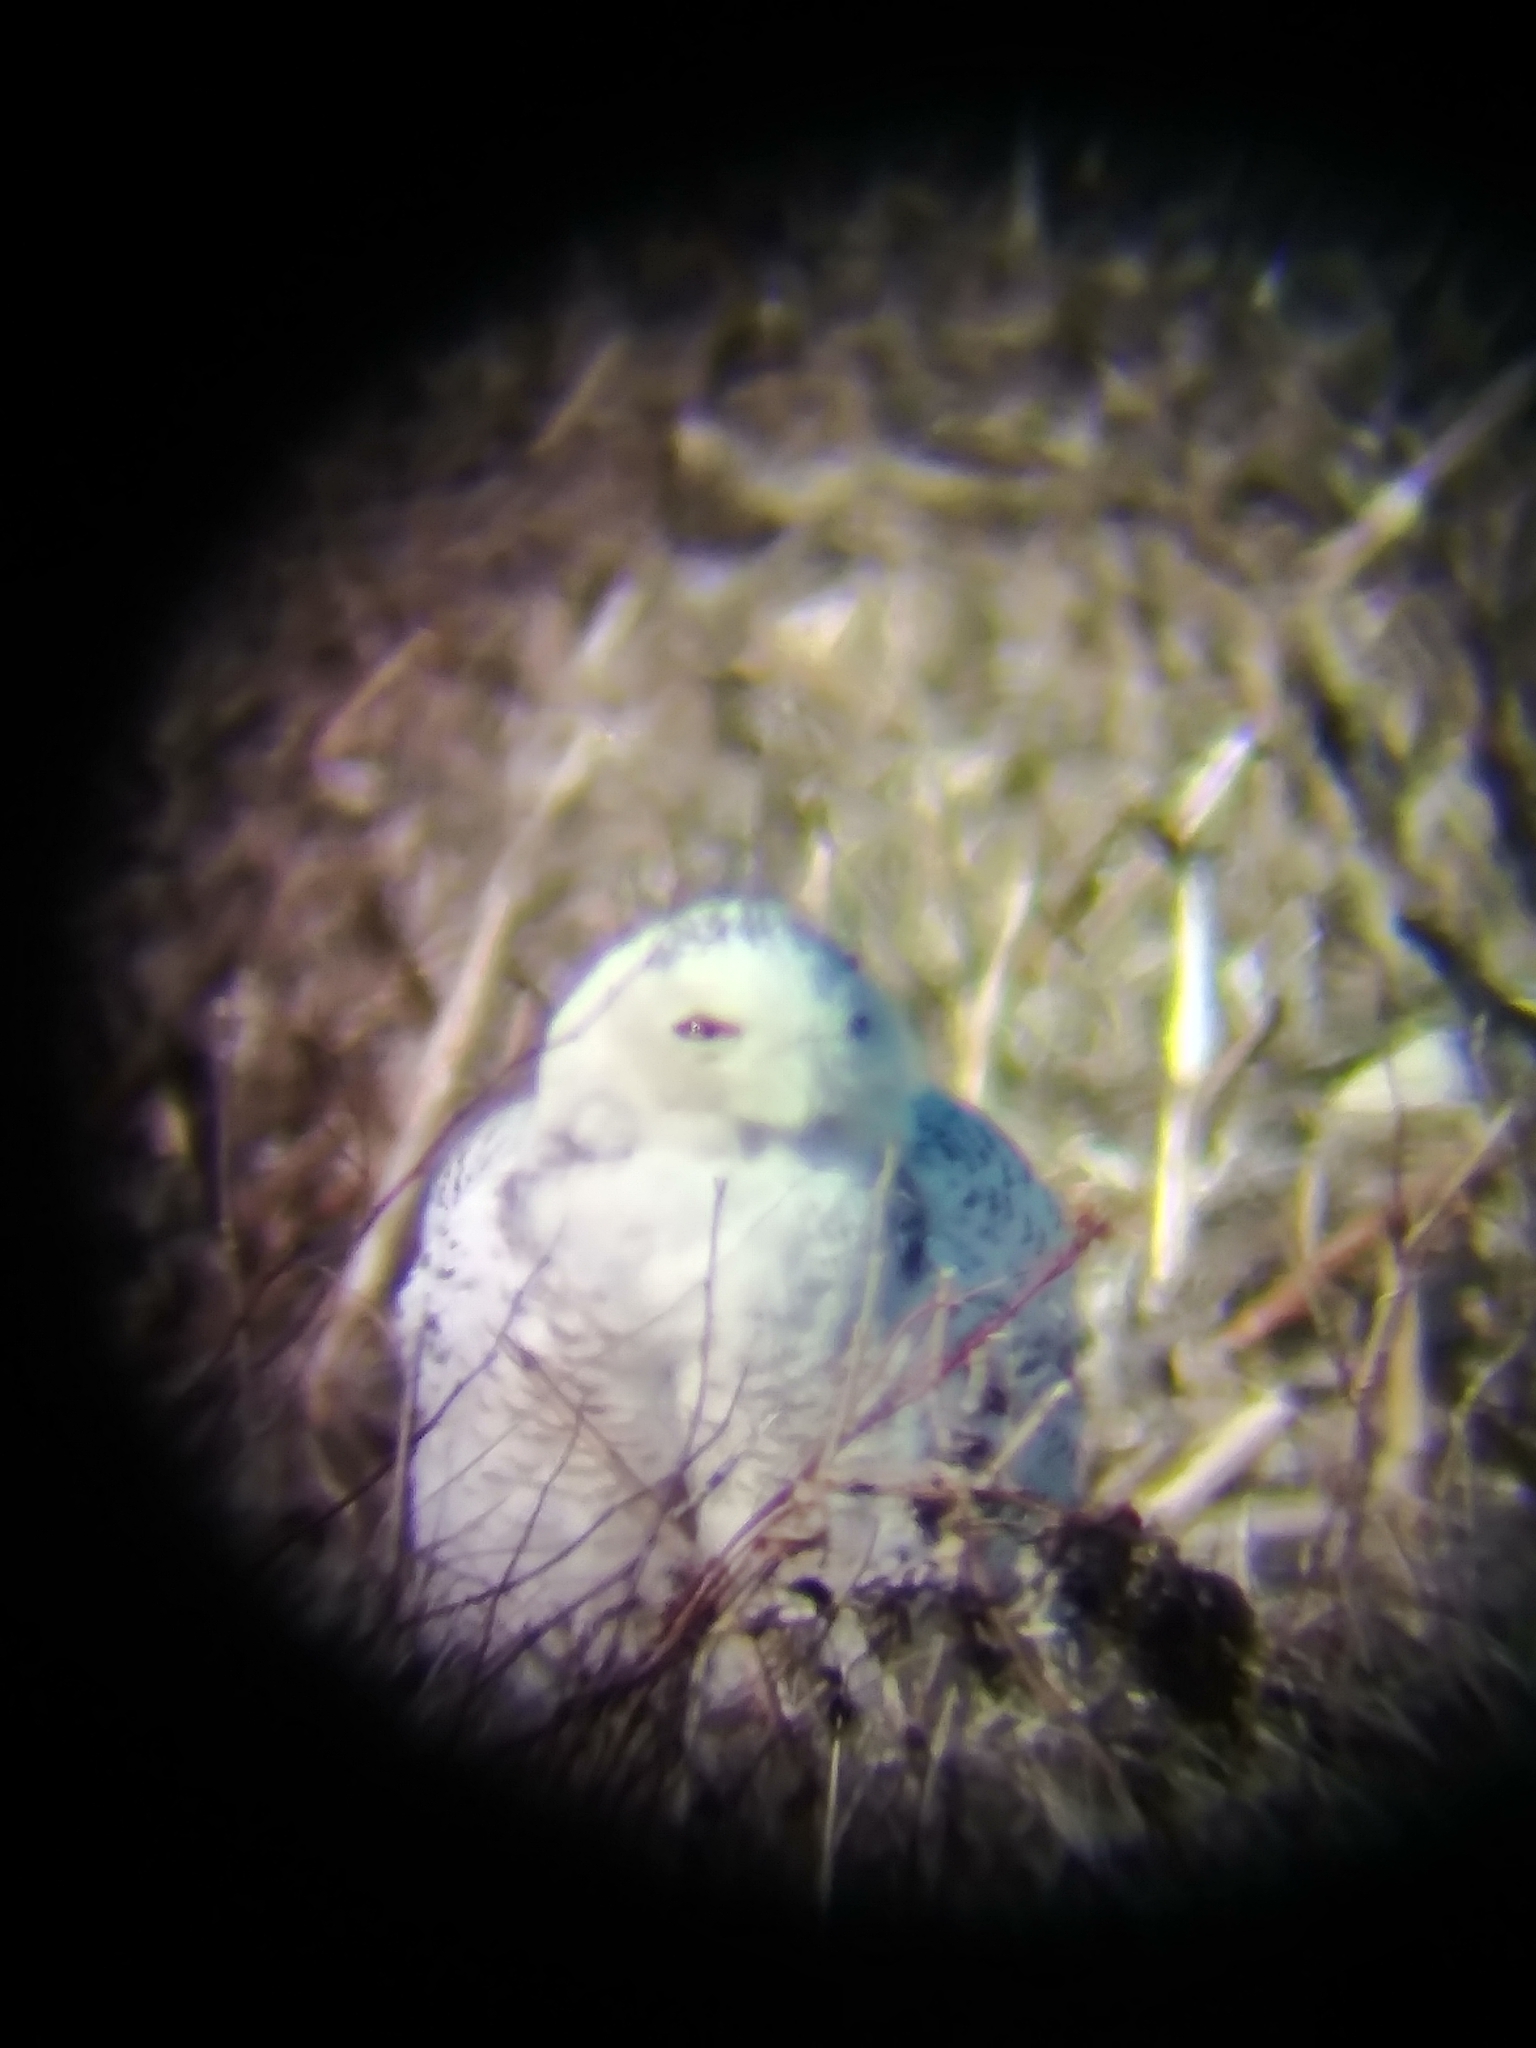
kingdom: Animalia
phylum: Chordata
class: Aves
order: Strigiformes
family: Strigidae
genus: Bubo
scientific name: Bubo scandiacus
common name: Snowy owl
